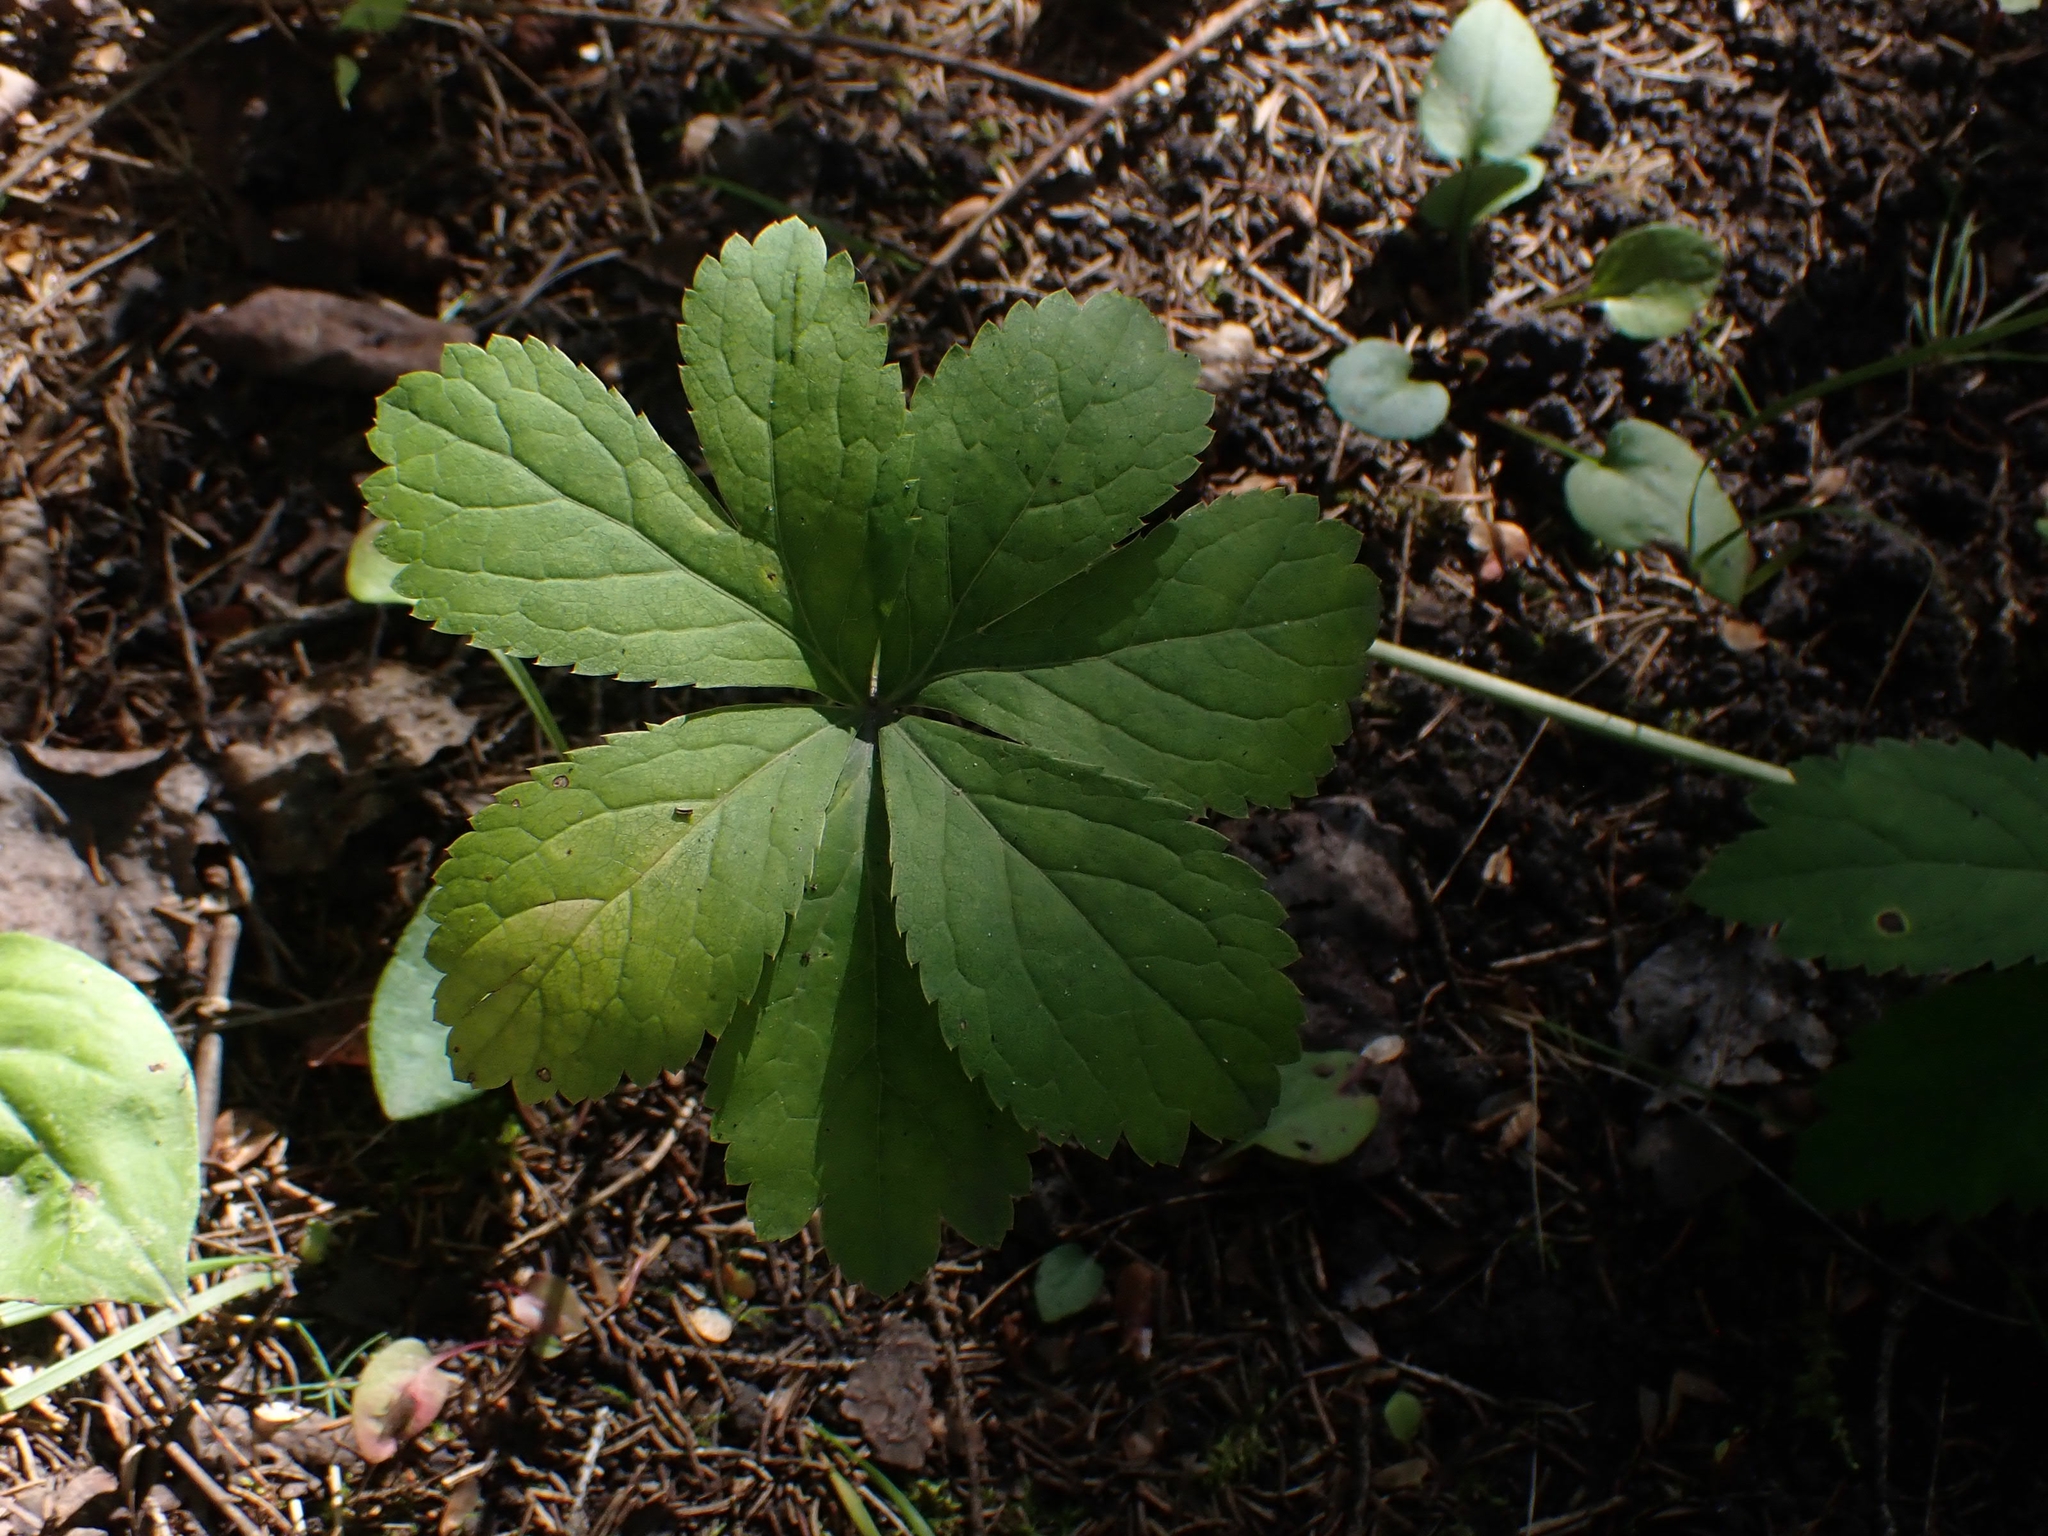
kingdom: Plantae
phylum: Tracheophyta
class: Magnoliopsida
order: Apiales
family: Apiaceae
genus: Sanicula
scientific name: Sanicula marilandica
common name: Black snakeroot
